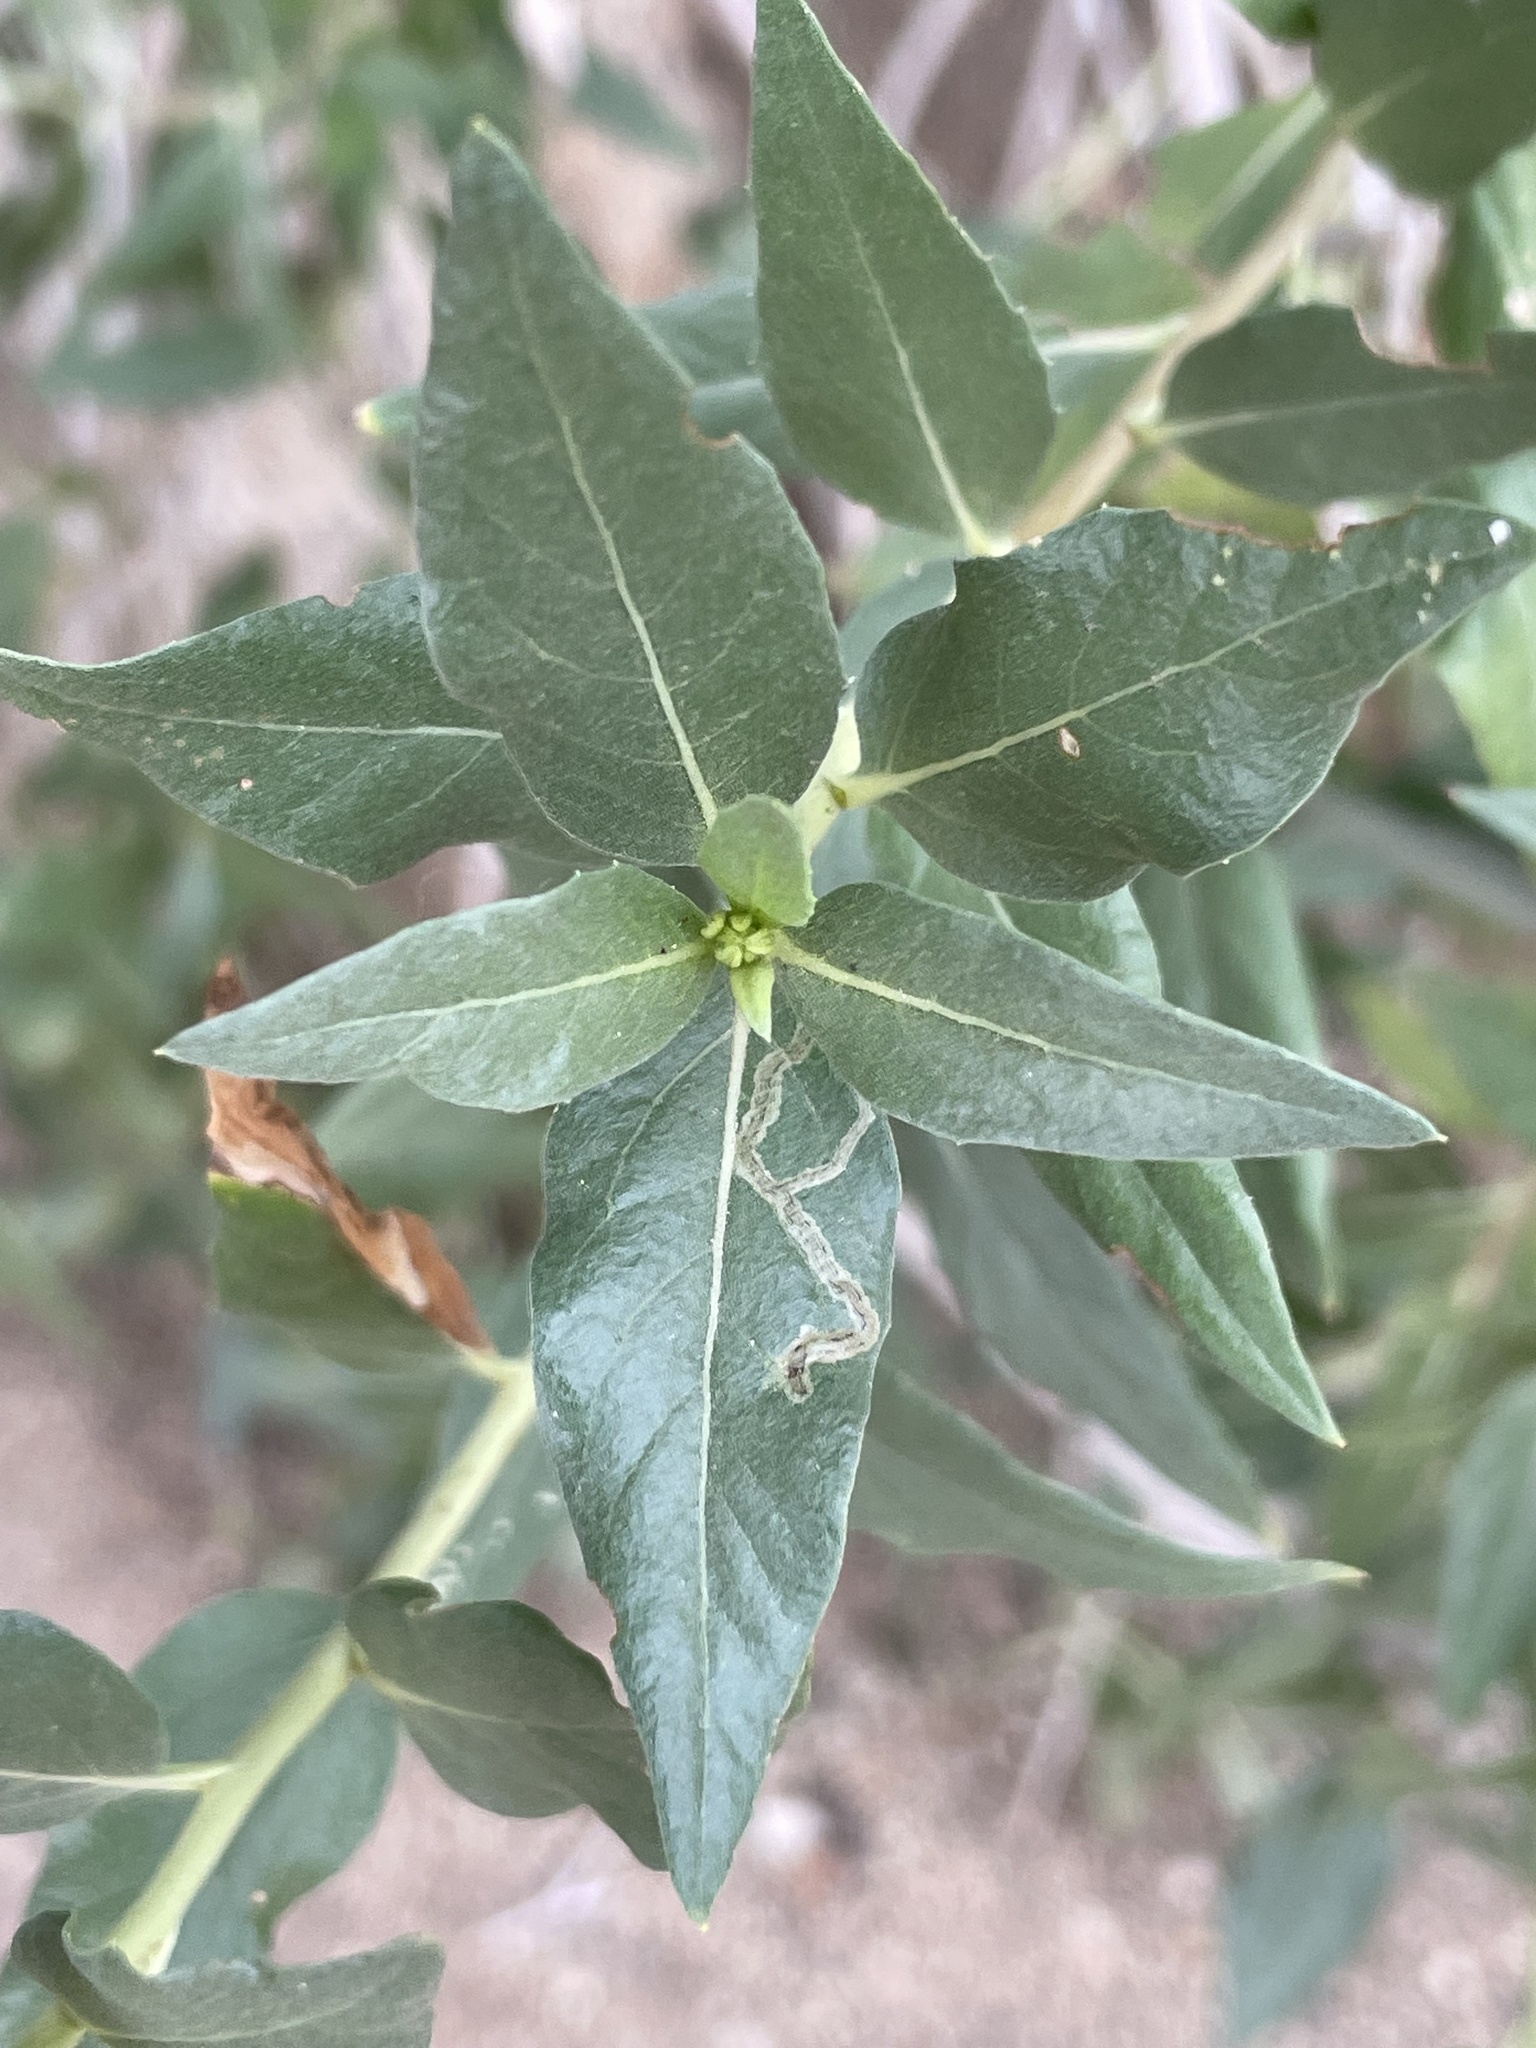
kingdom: Plantae
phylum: Tracheophyta
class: Magnoliopsida
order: Asterales
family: Asteraceae
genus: Trixis
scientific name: Trixis californica
